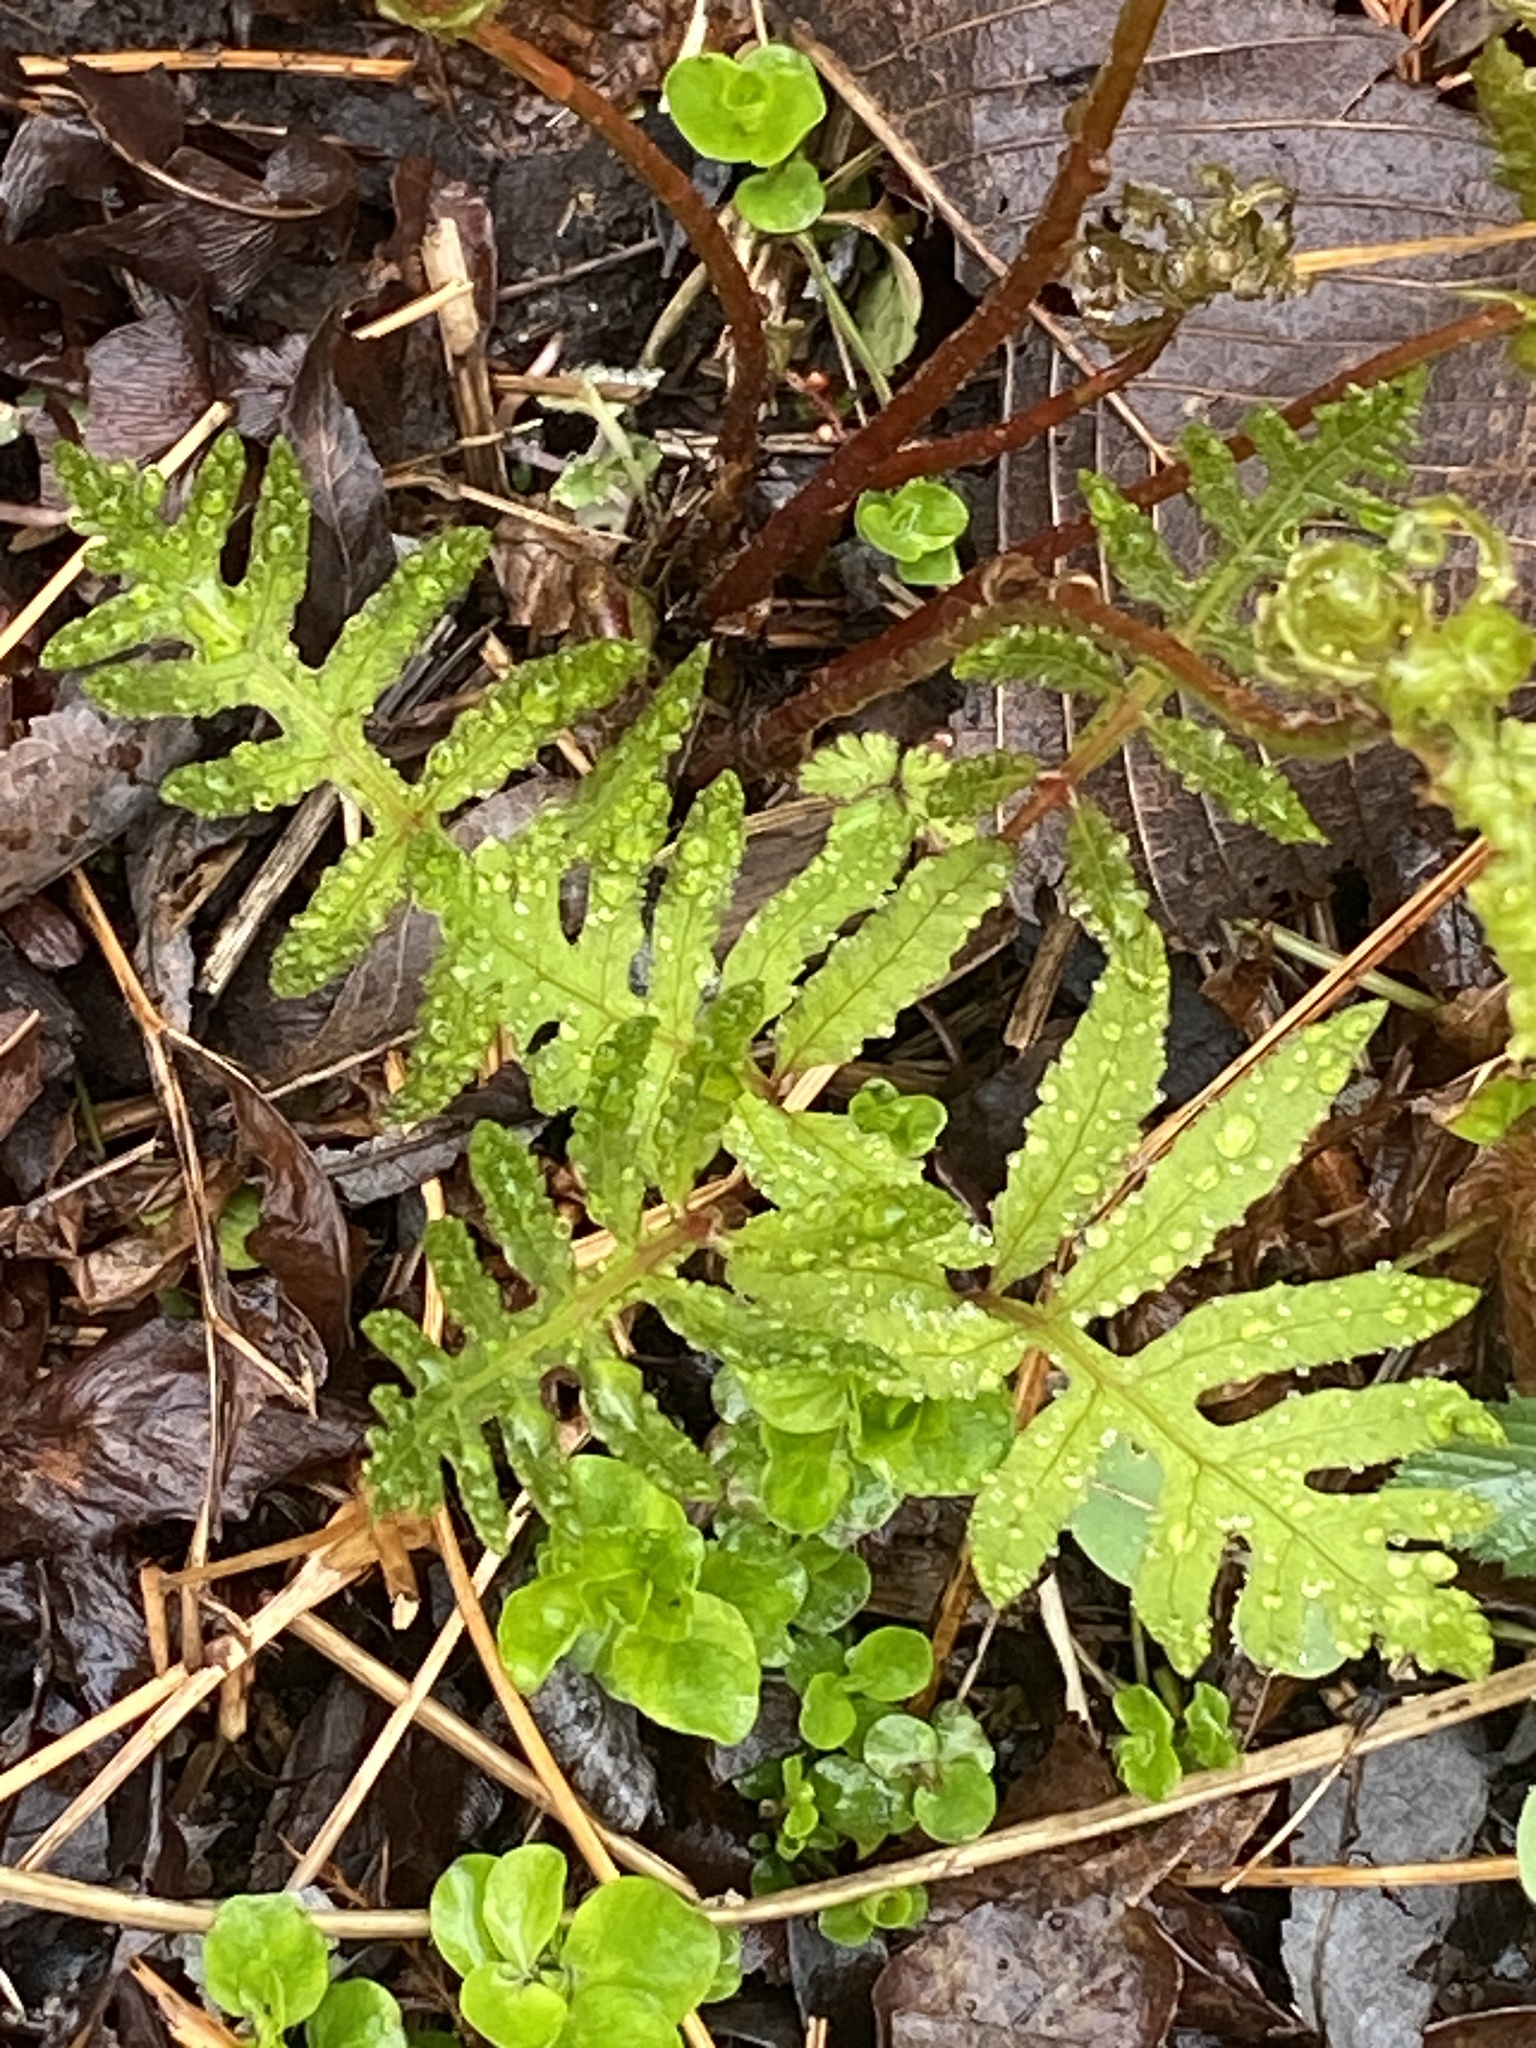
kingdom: Plantae
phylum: Tracheophyta
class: Polypodiopsida
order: Polypodiales
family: Onocleaceae
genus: Onoclea
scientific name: Onoclea sensibilis
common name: Sensitive fern
